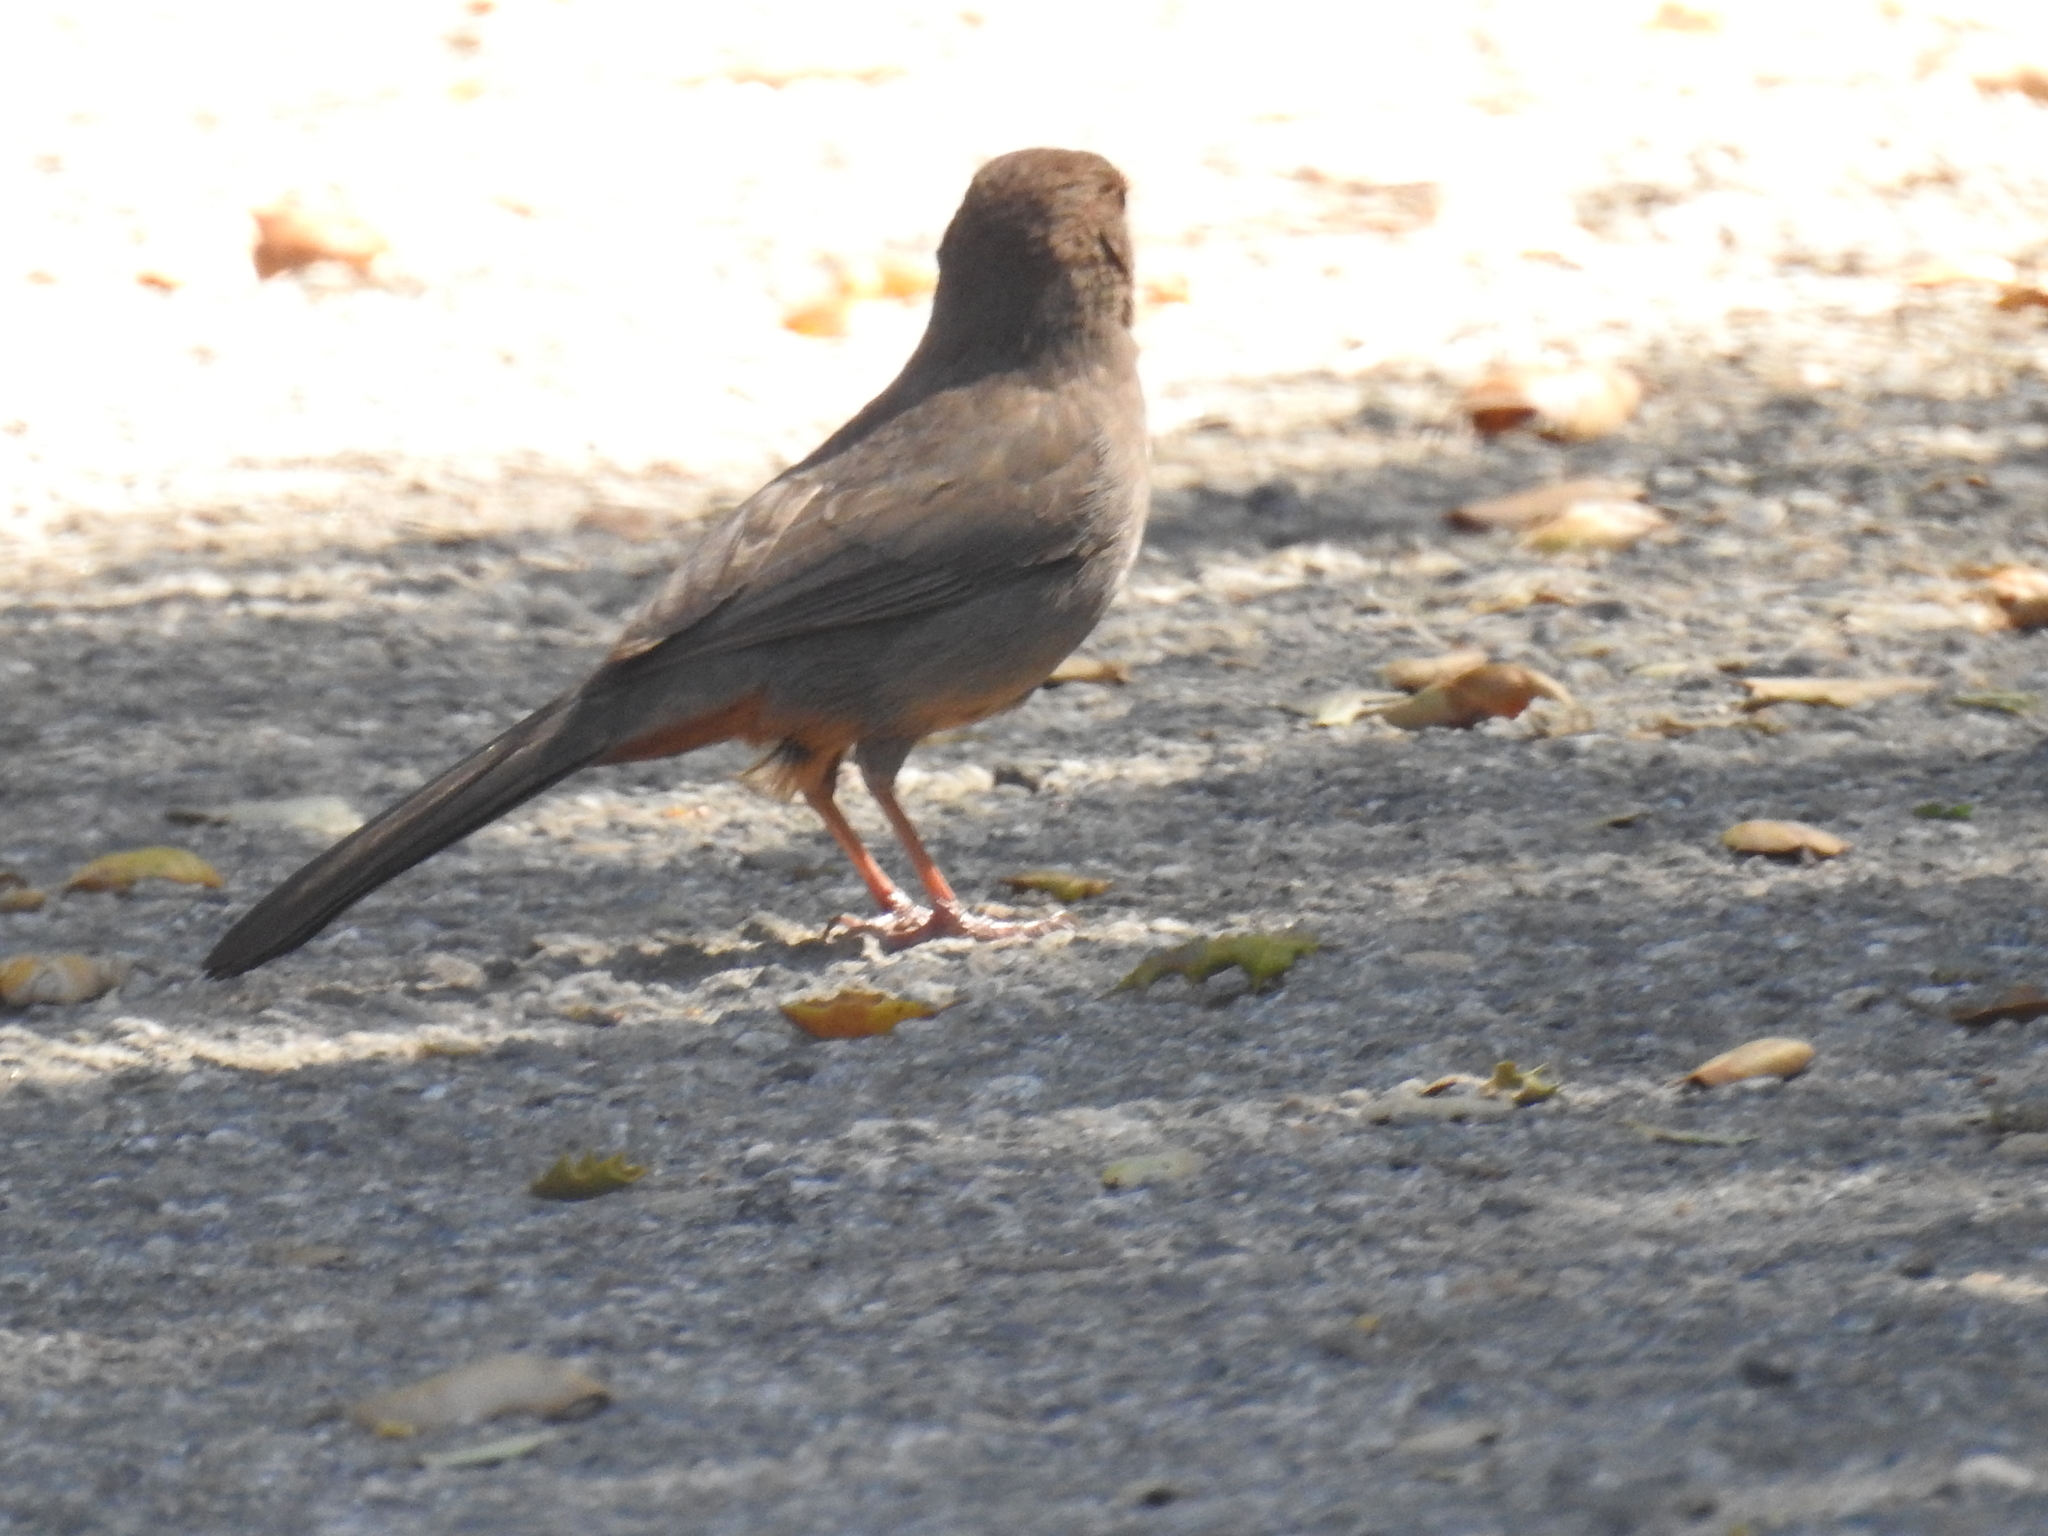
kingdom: Animalia
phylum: Chordata
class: Aves
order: Passeriformes
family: Passerellidae
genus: Melozone
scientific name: Melozone crissalis
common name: California towhee
